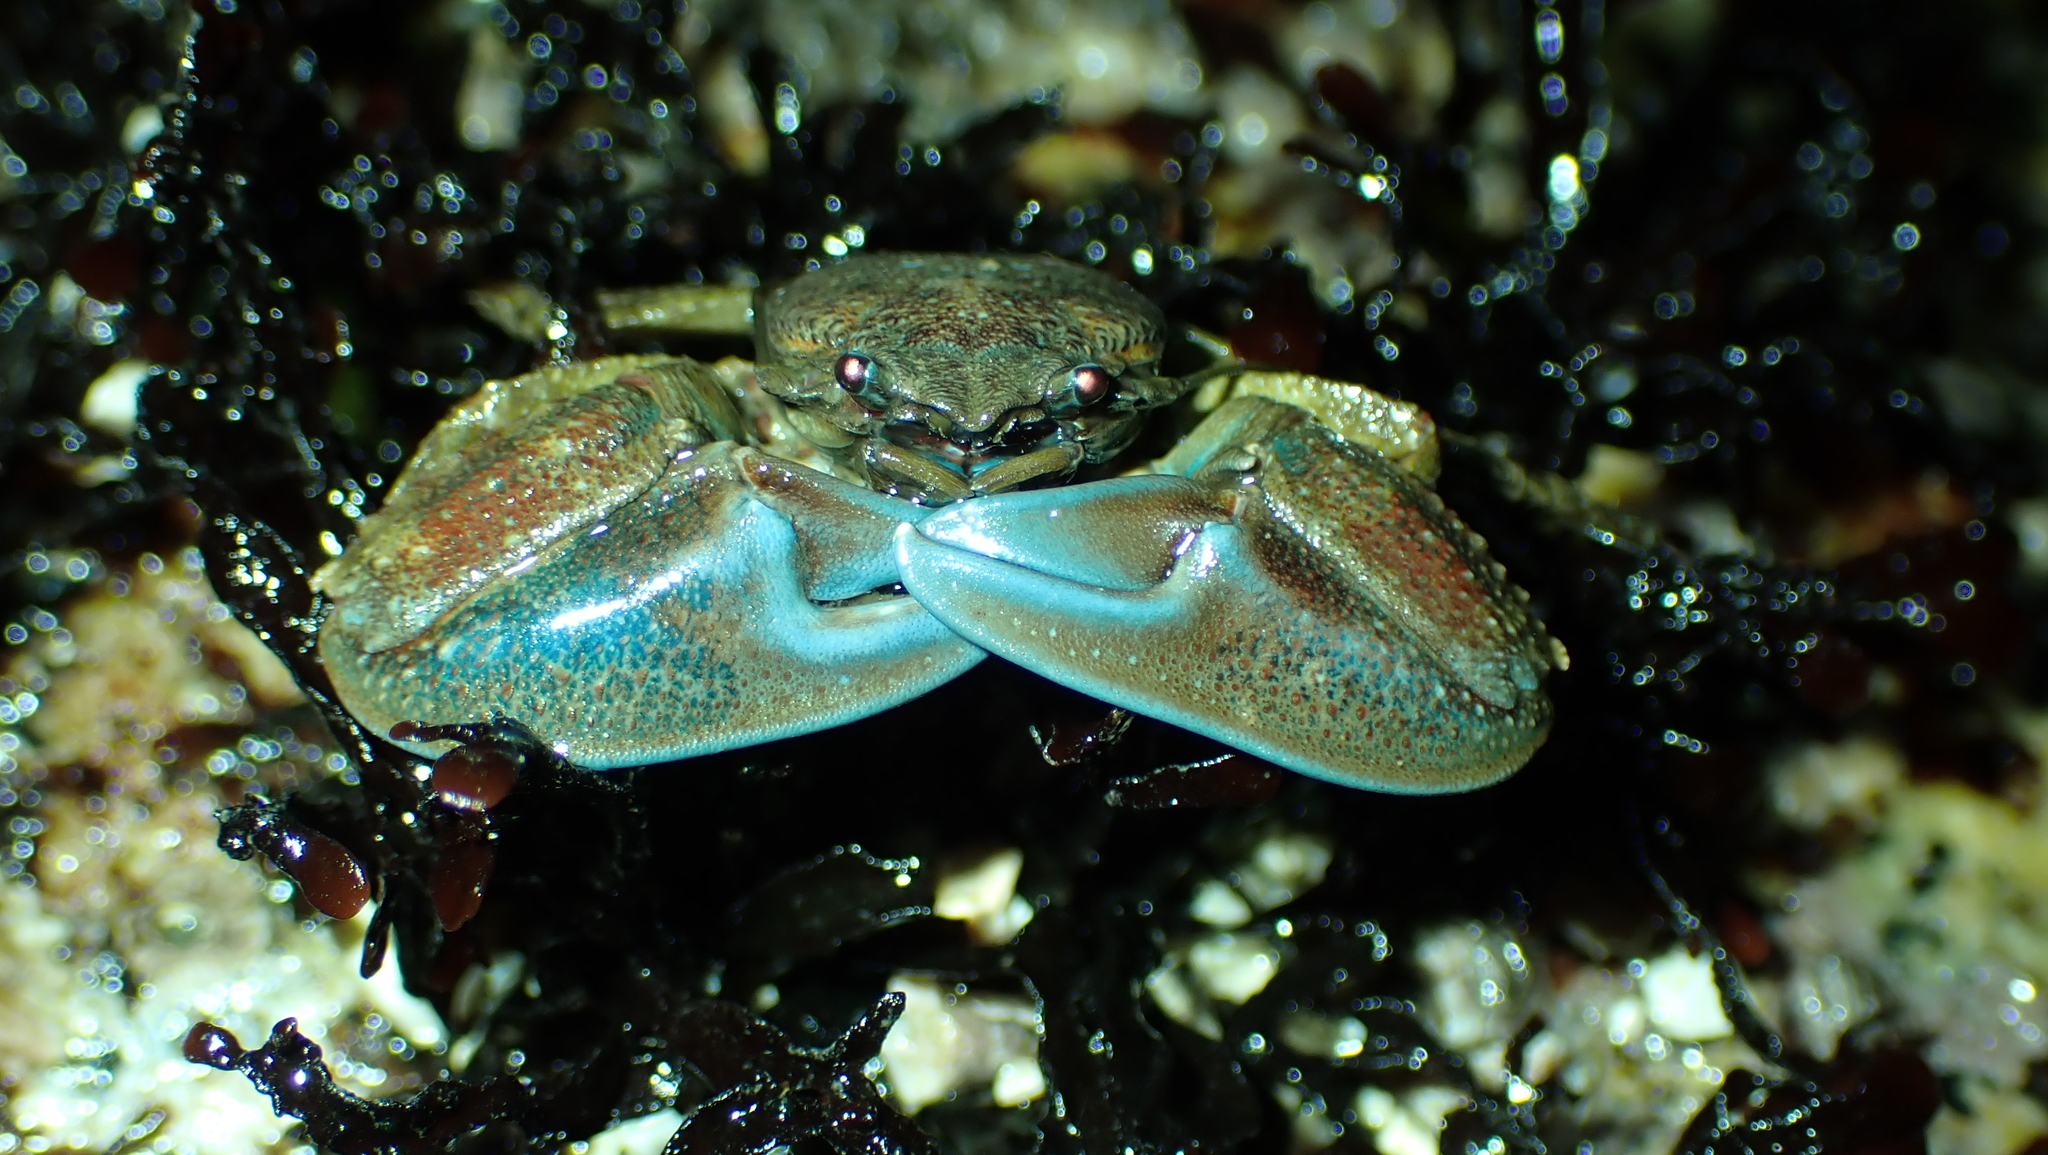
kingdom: Animalia
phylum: Arthropoda
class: Malacostraca
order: Decapoda
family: Porcellanidae
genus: Petrolisthes
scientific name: Petrolisthes eriomerus
